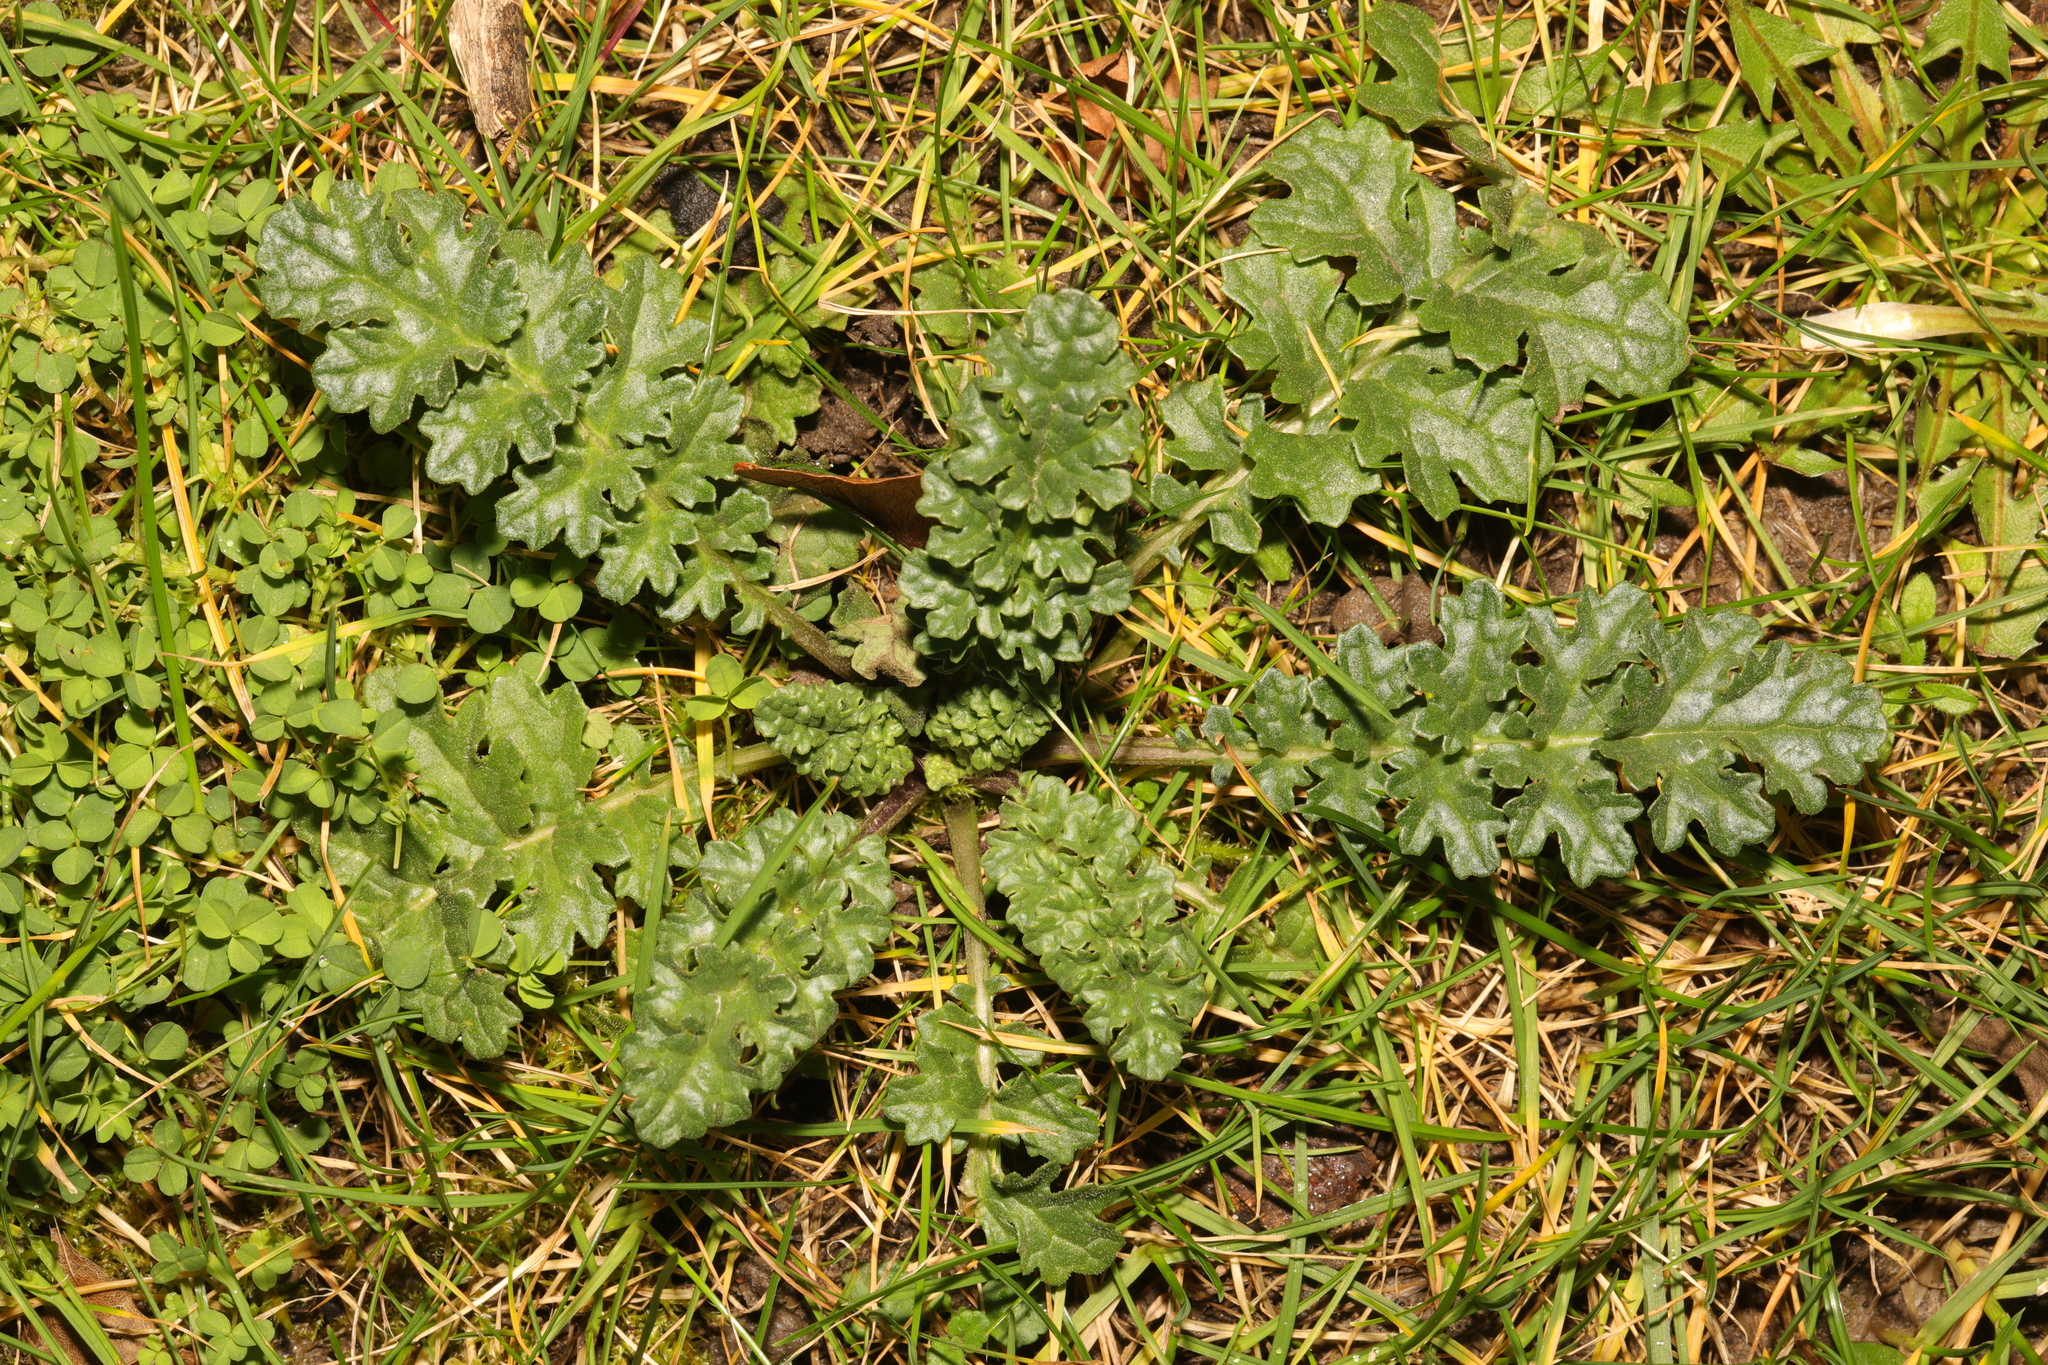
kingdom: Plantae
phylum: Tracheophyta
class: Magnoliopsida
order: Asterales
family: Asteraceae
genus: Jacobaea
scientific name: Jacobaea vulgaris
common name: Stinking willie
